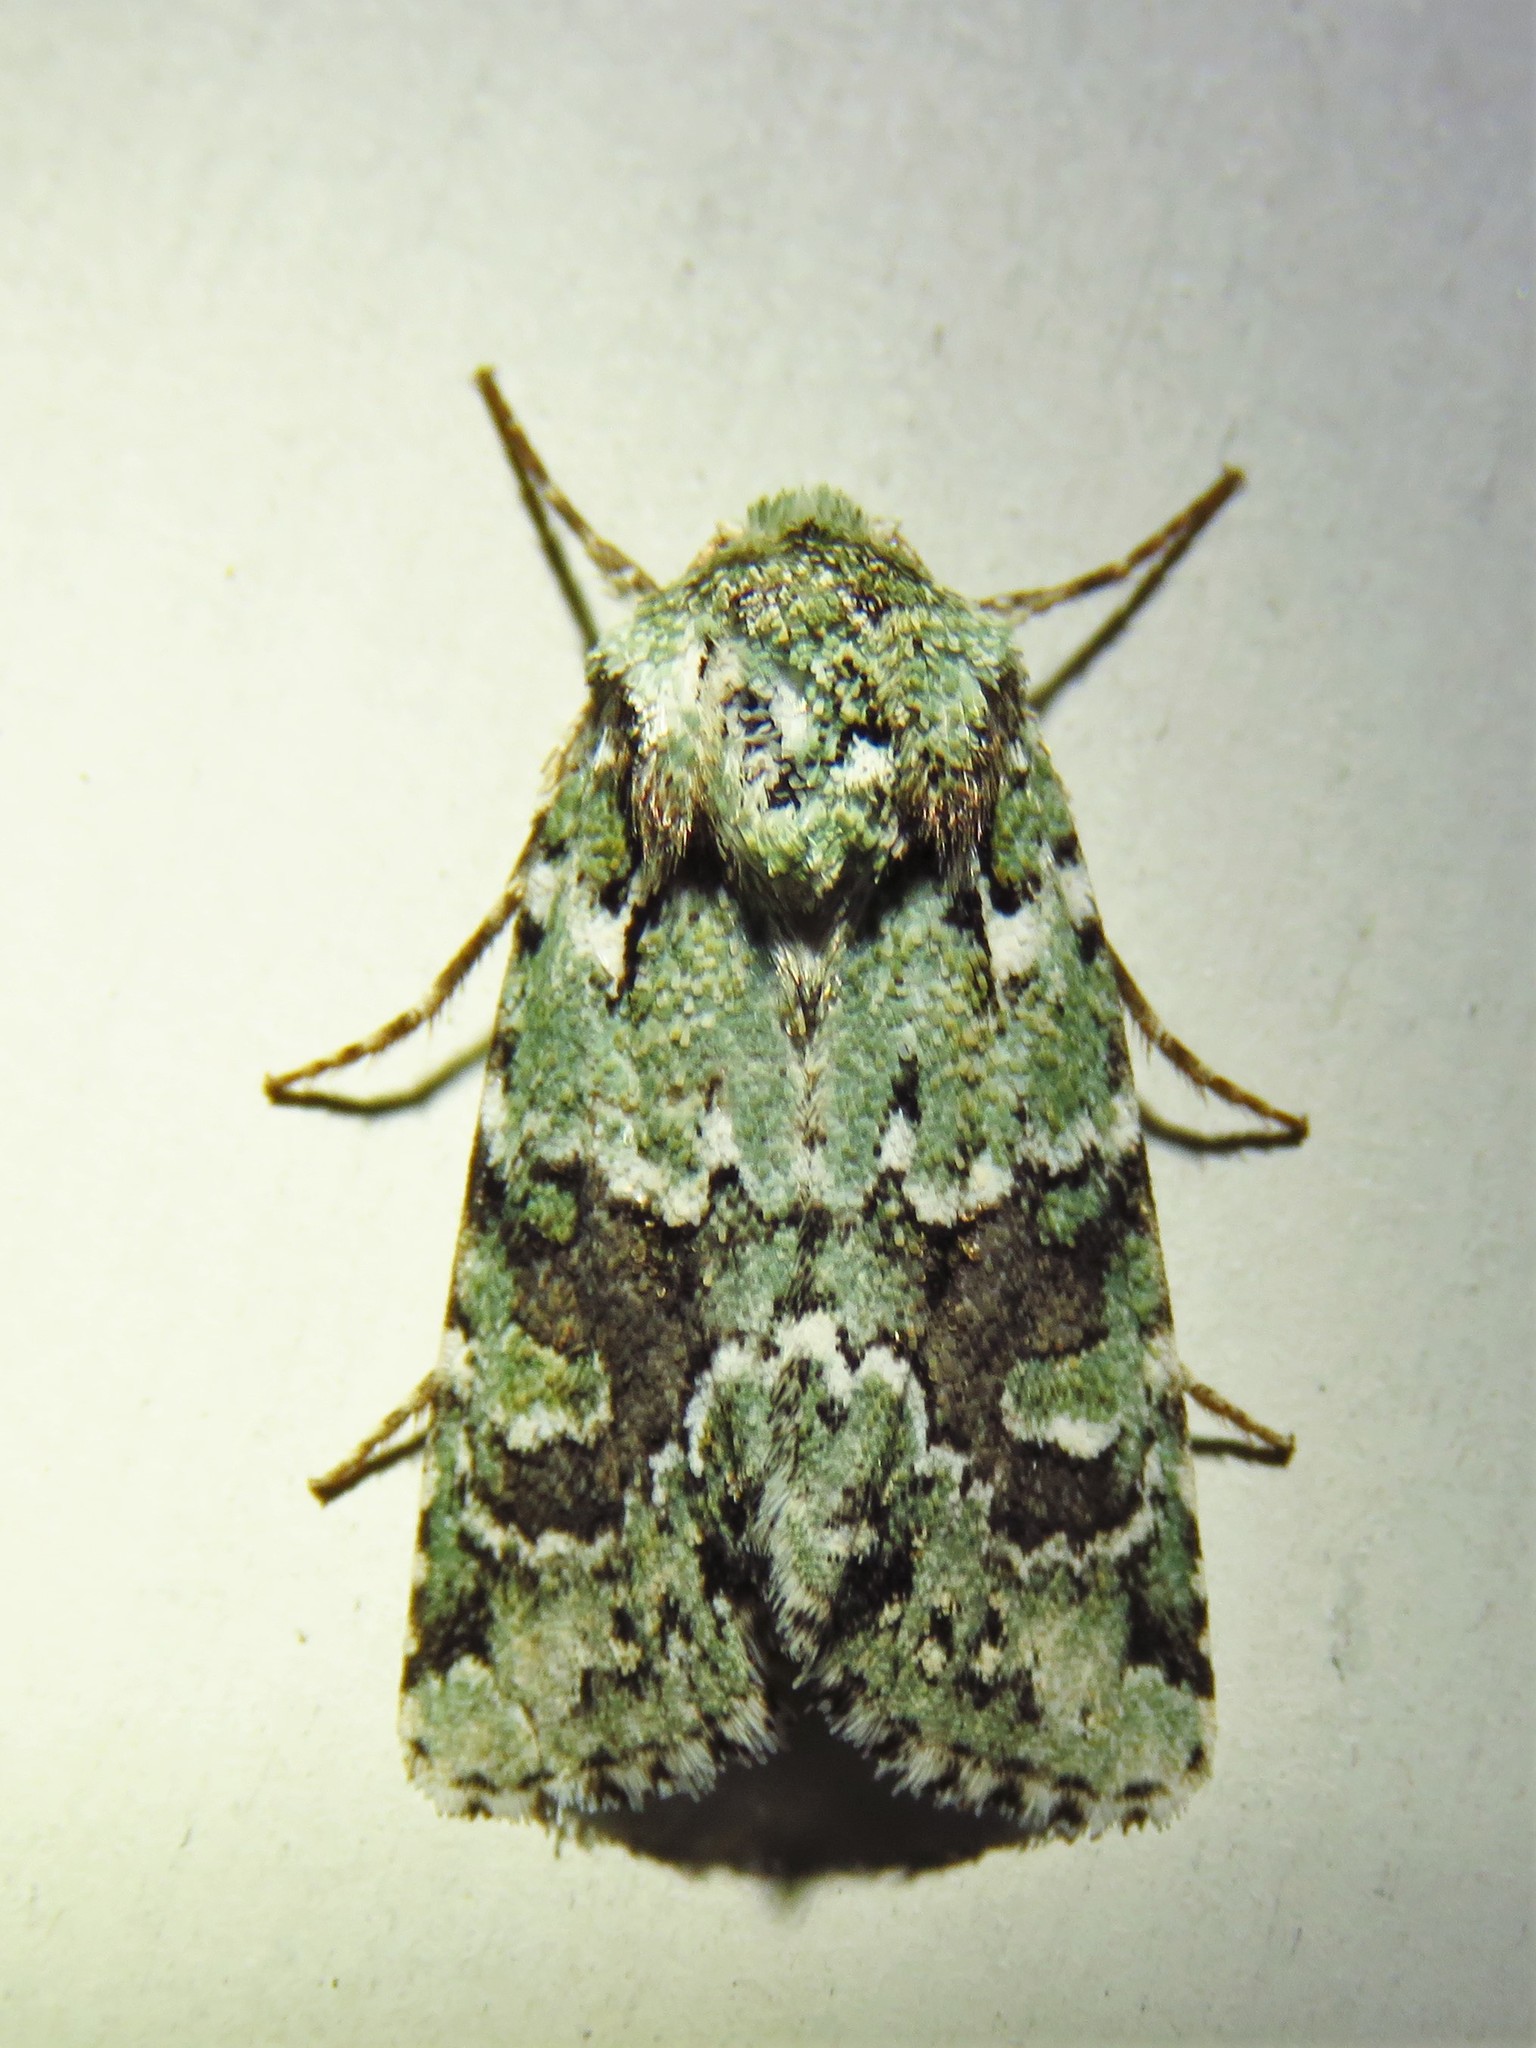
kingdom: Animalia
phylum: Arthropoda
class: Insecta
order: Lepidoptera
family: Noctuidae
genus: Lacinipolia
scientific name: Lacinipolia laudabilis
